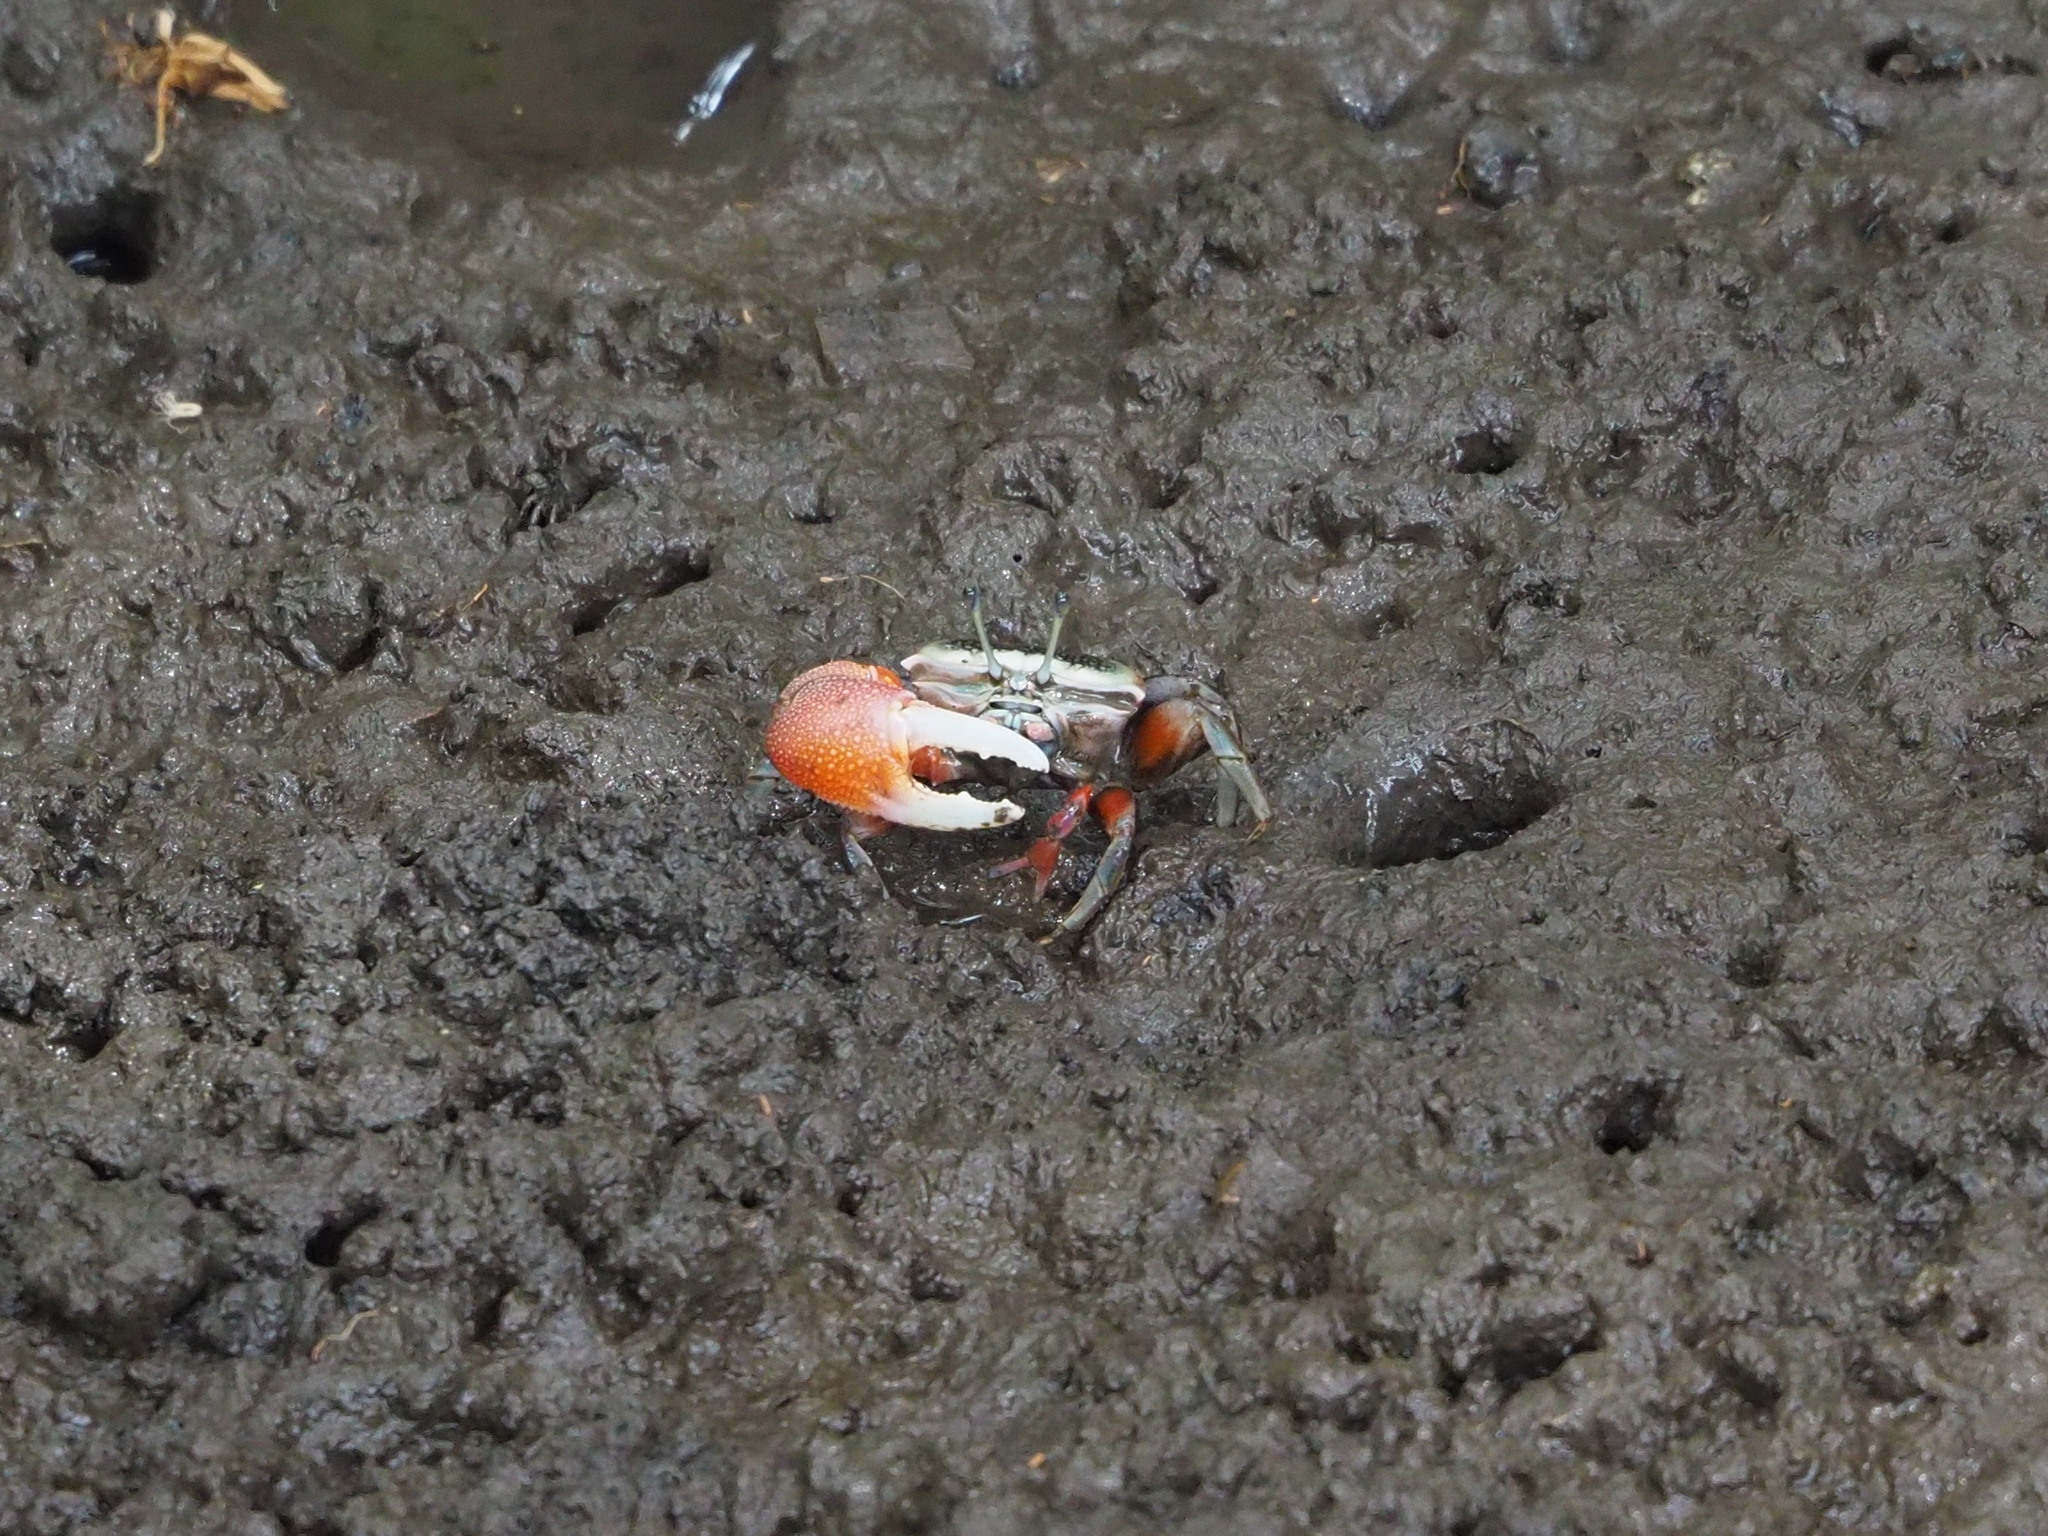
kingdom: Animalia
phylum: Arthropoda
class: Malacostraca
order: Decapoda
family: Ocypodidae
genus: Tubuca
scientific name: Tubuca arcuata
